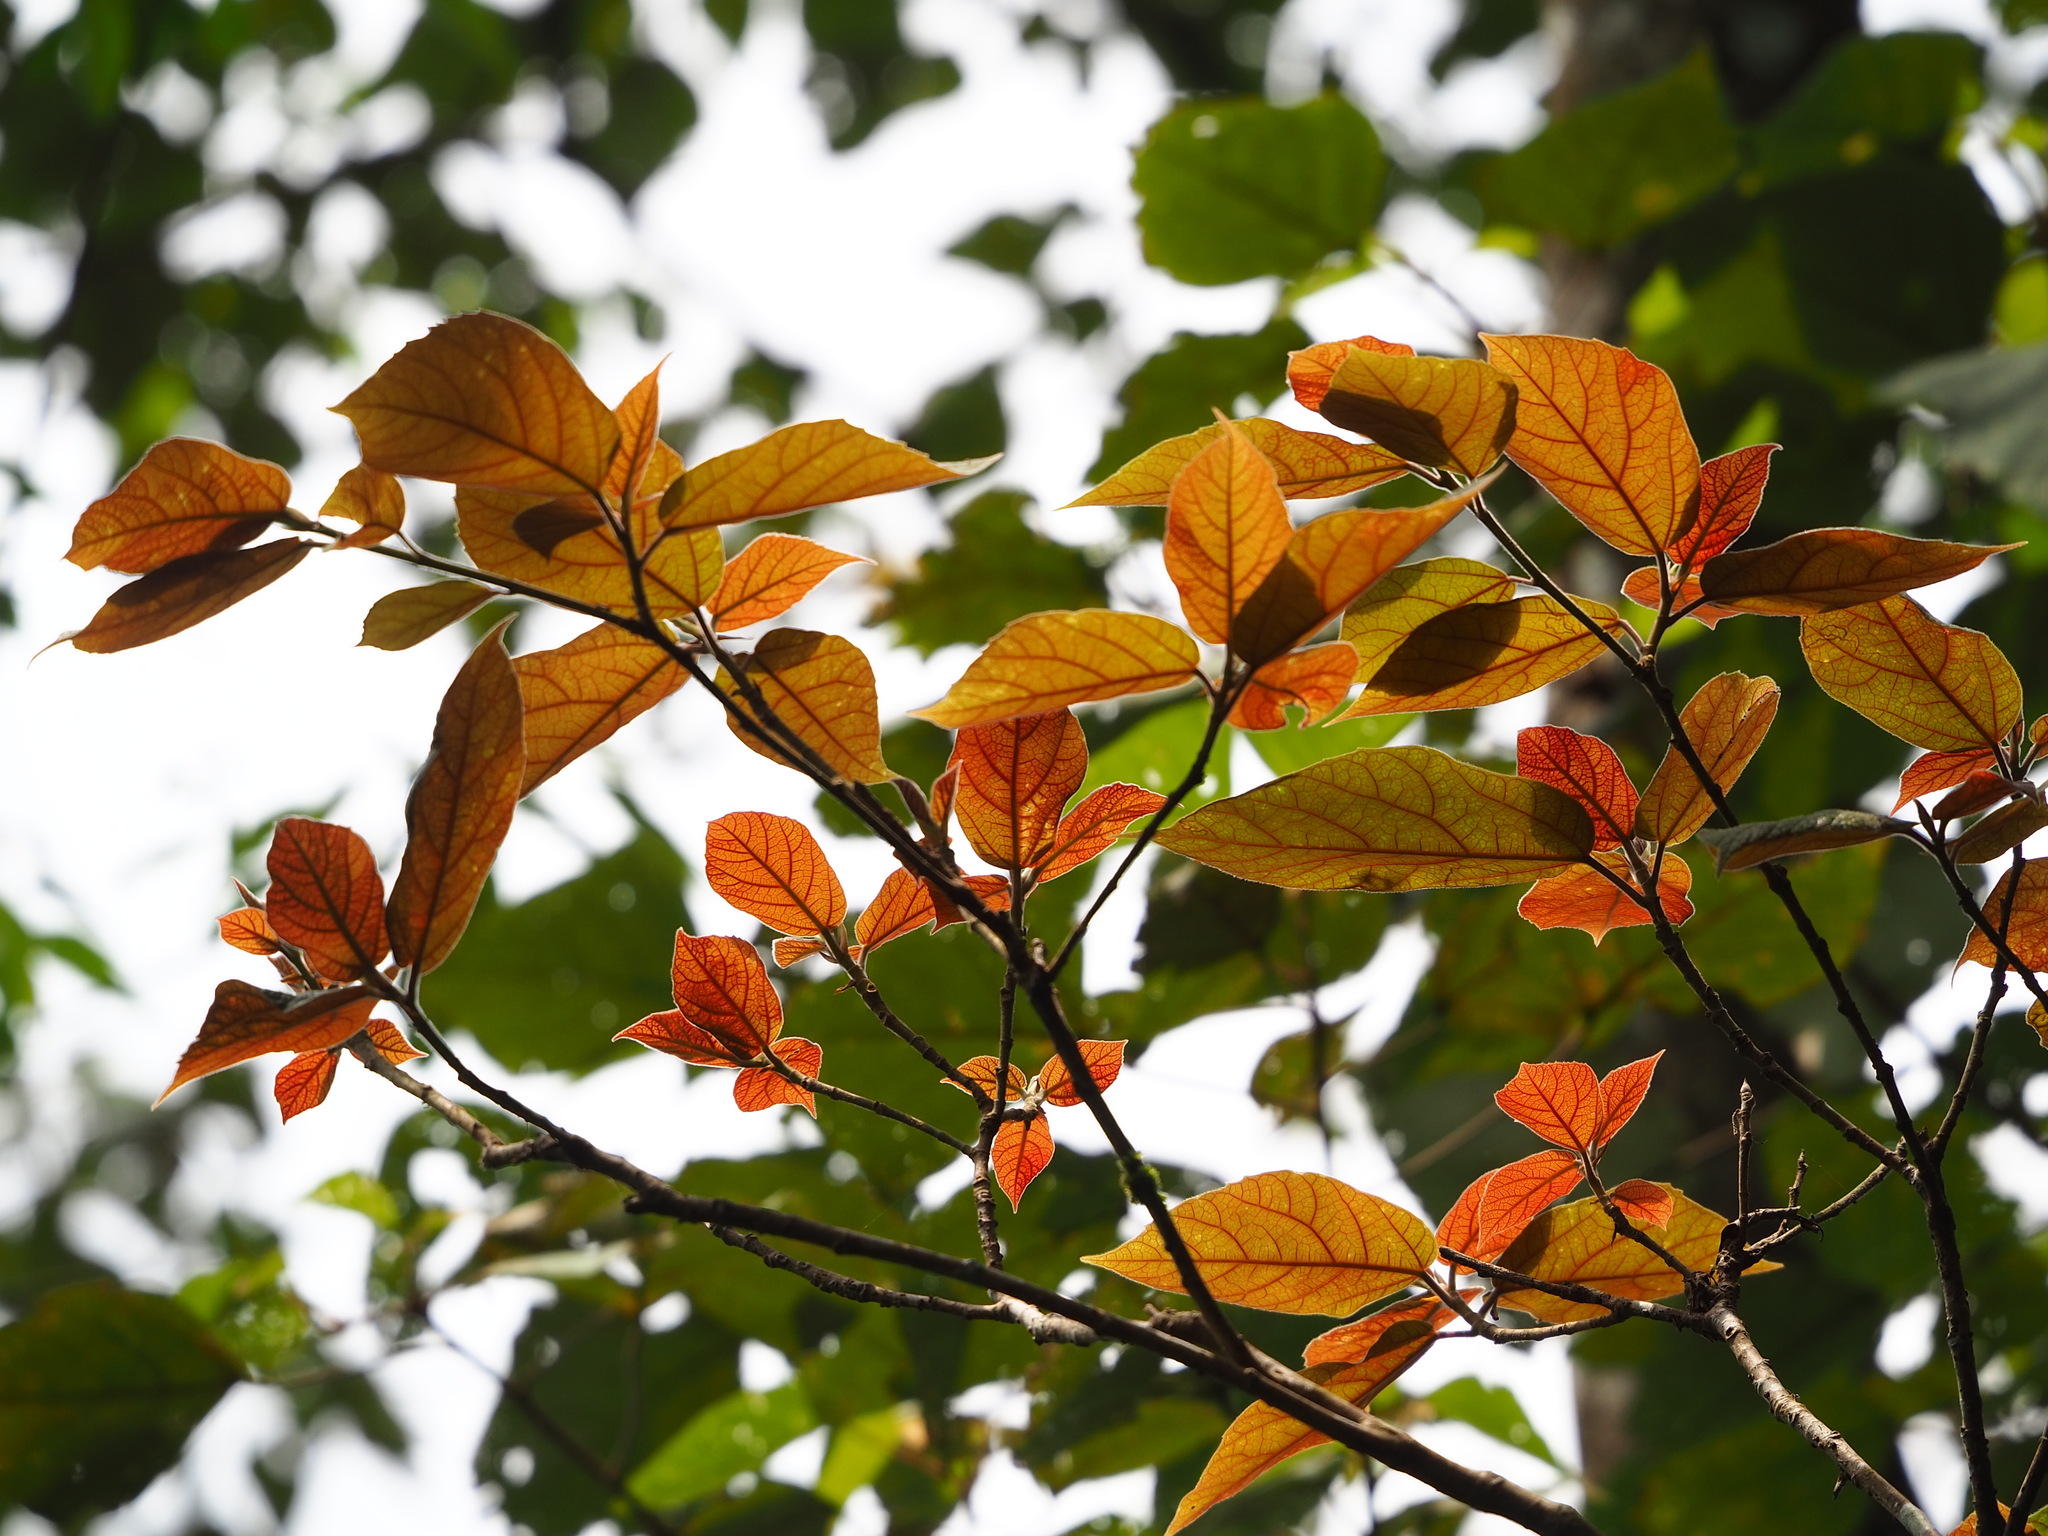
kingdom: Plantae
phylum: Tracheophyta
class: Magnoliopsida
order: Rosales
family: Moraceae
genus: Ficus
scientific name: Ficus erecta
